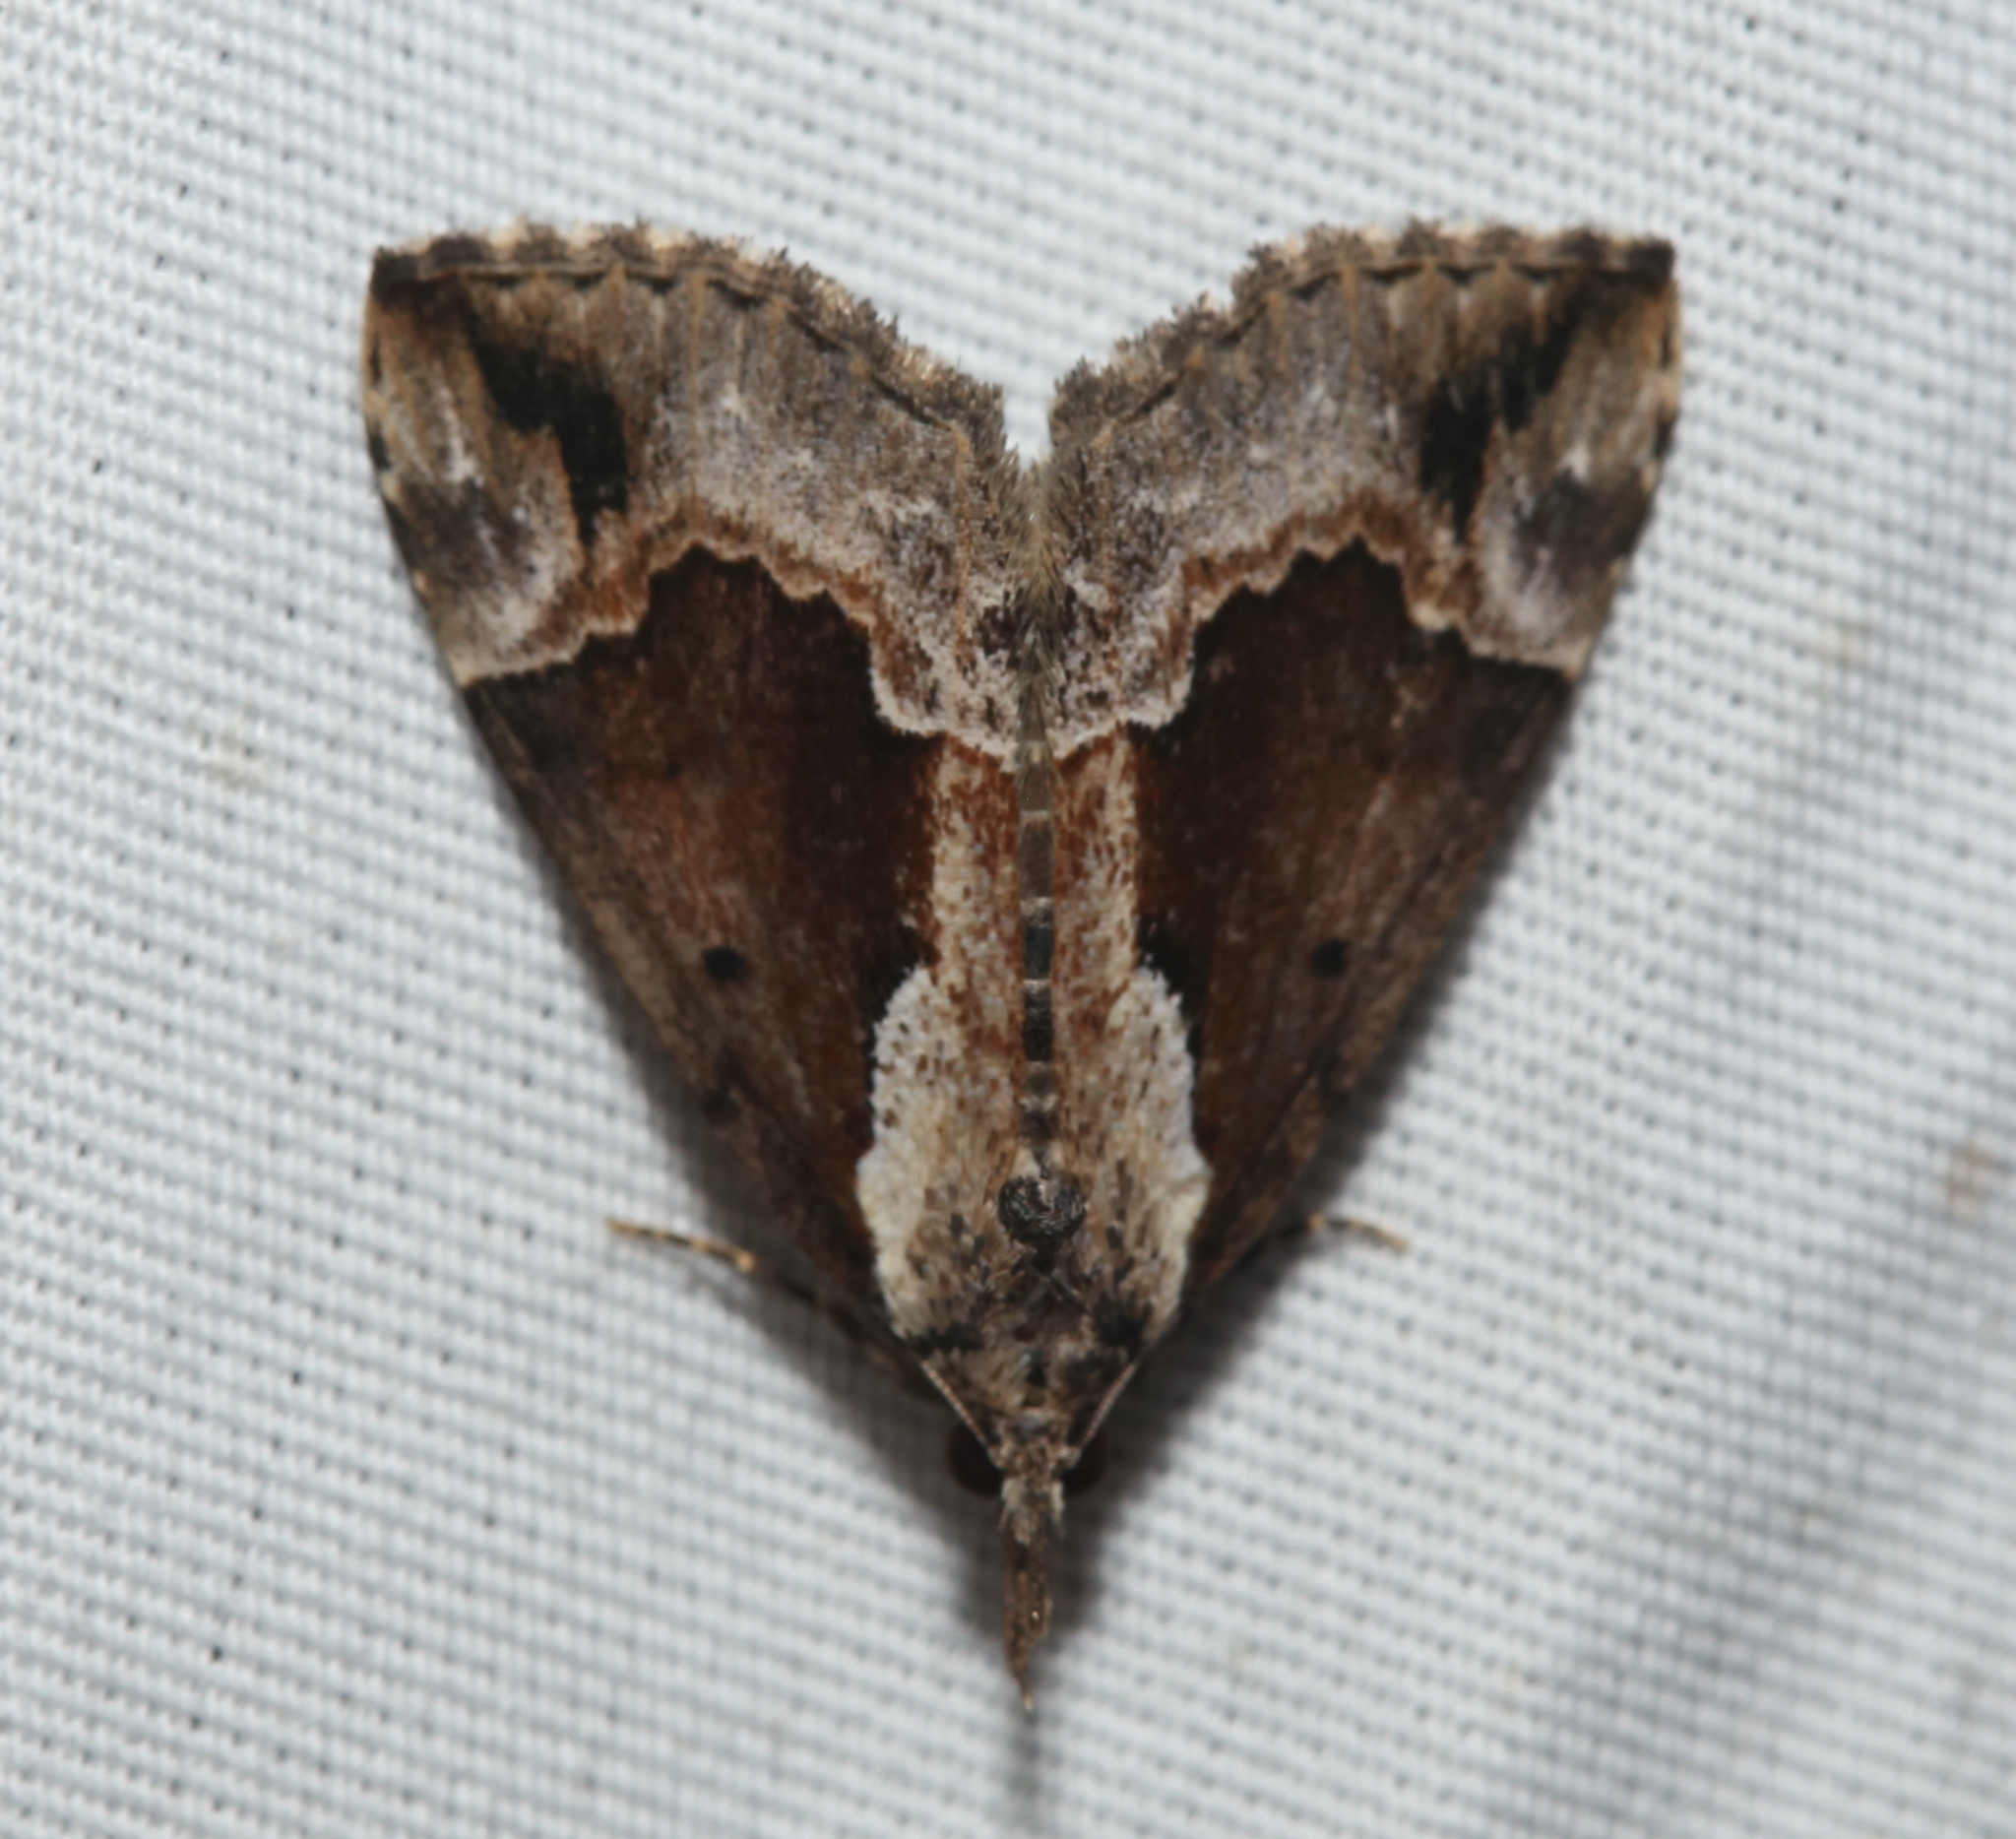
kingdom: Animalia
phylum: Arthropoda
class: Insecta
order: Lepidoptera
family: Erebidae
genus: Hypena
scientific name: Hypena baltimoralis
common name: Baltimore snout
